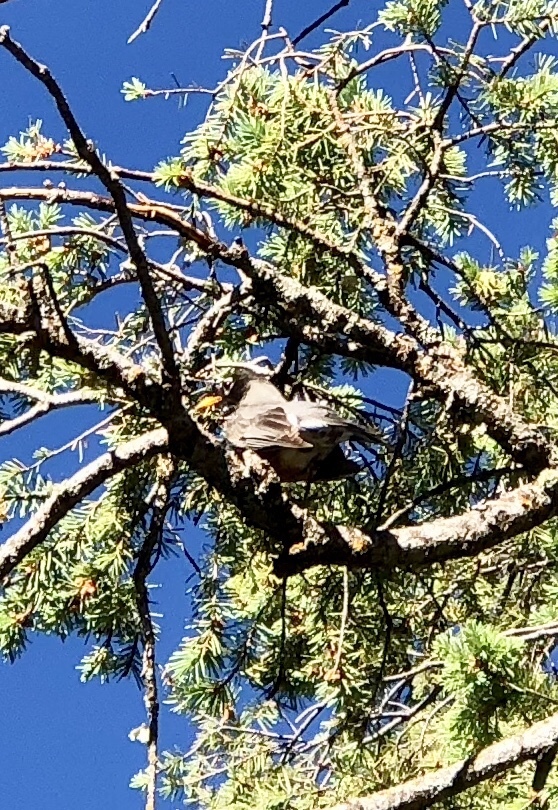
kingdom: Animalia
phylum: Chordata
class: Aves
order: Passeriformes
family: Turdidae
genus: Turdus
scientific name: Turdus migratorius
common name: American robin
